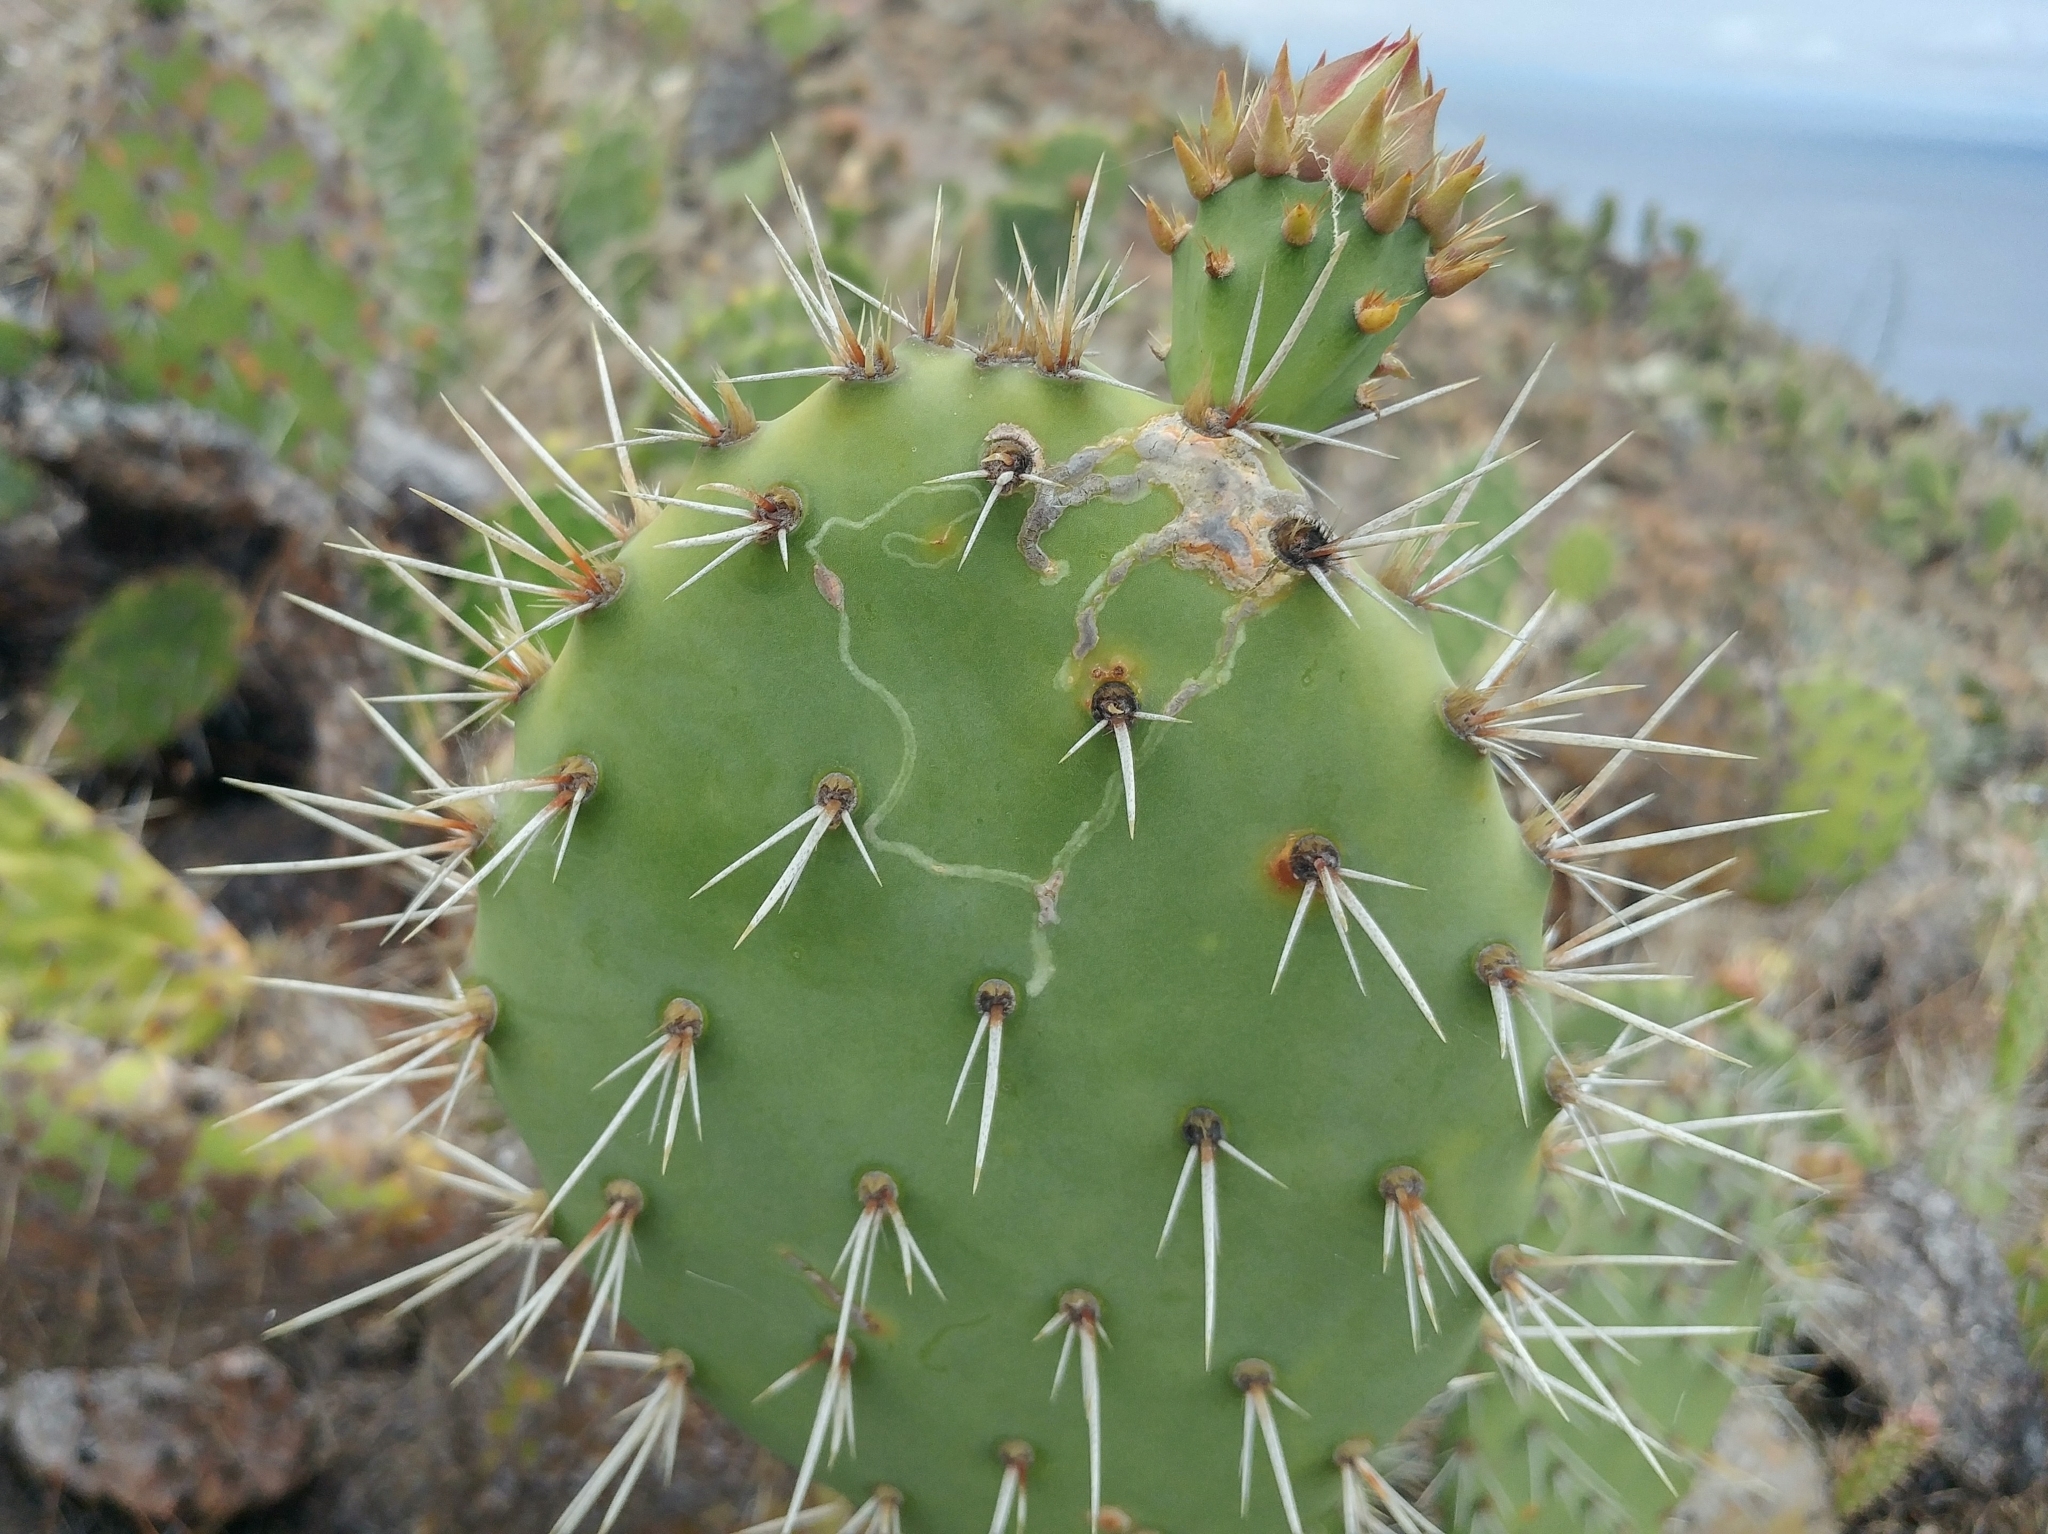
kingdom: Animalia
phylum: Arthropoda
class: Insecta
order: Lepidoptera
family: Gracillariidae
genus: Marmara
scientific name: Marmara opuntiella
